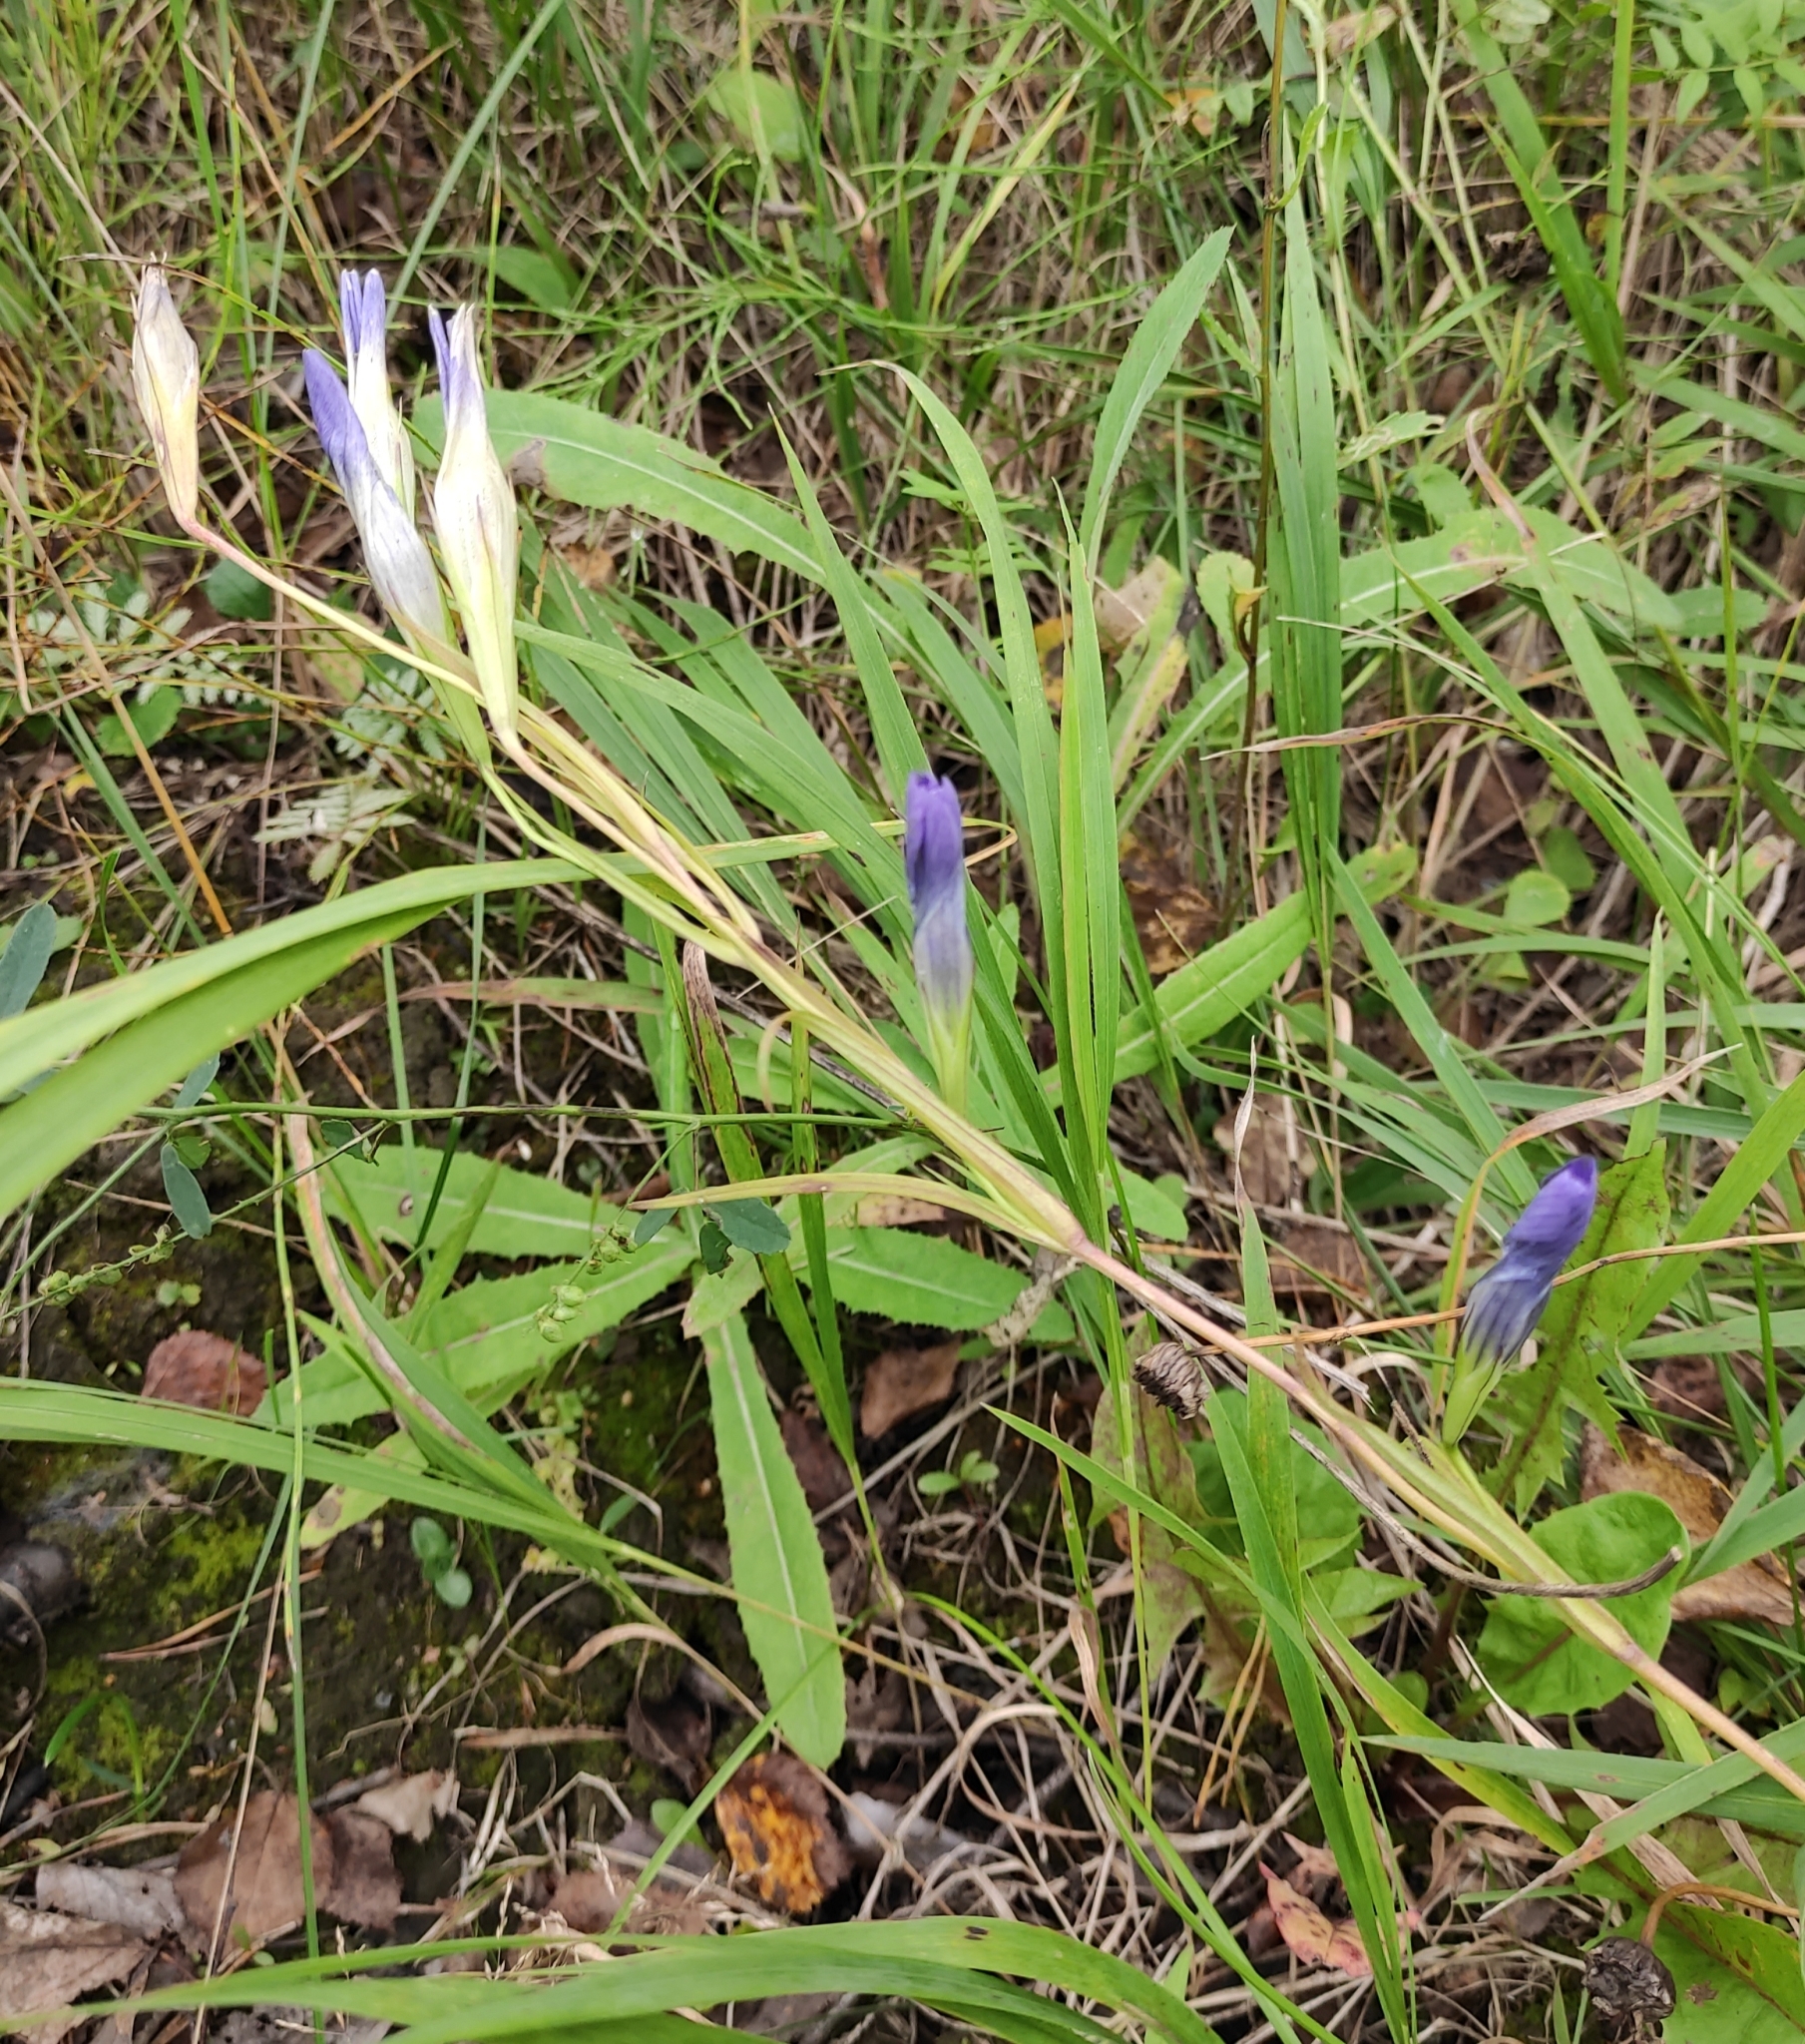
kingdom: Plantae
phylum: Tracheophyta
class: Magnoliopsida
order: Gentianales
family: Gentianaceae
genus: Gentianopsis
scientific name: Gentianopsis barbata
